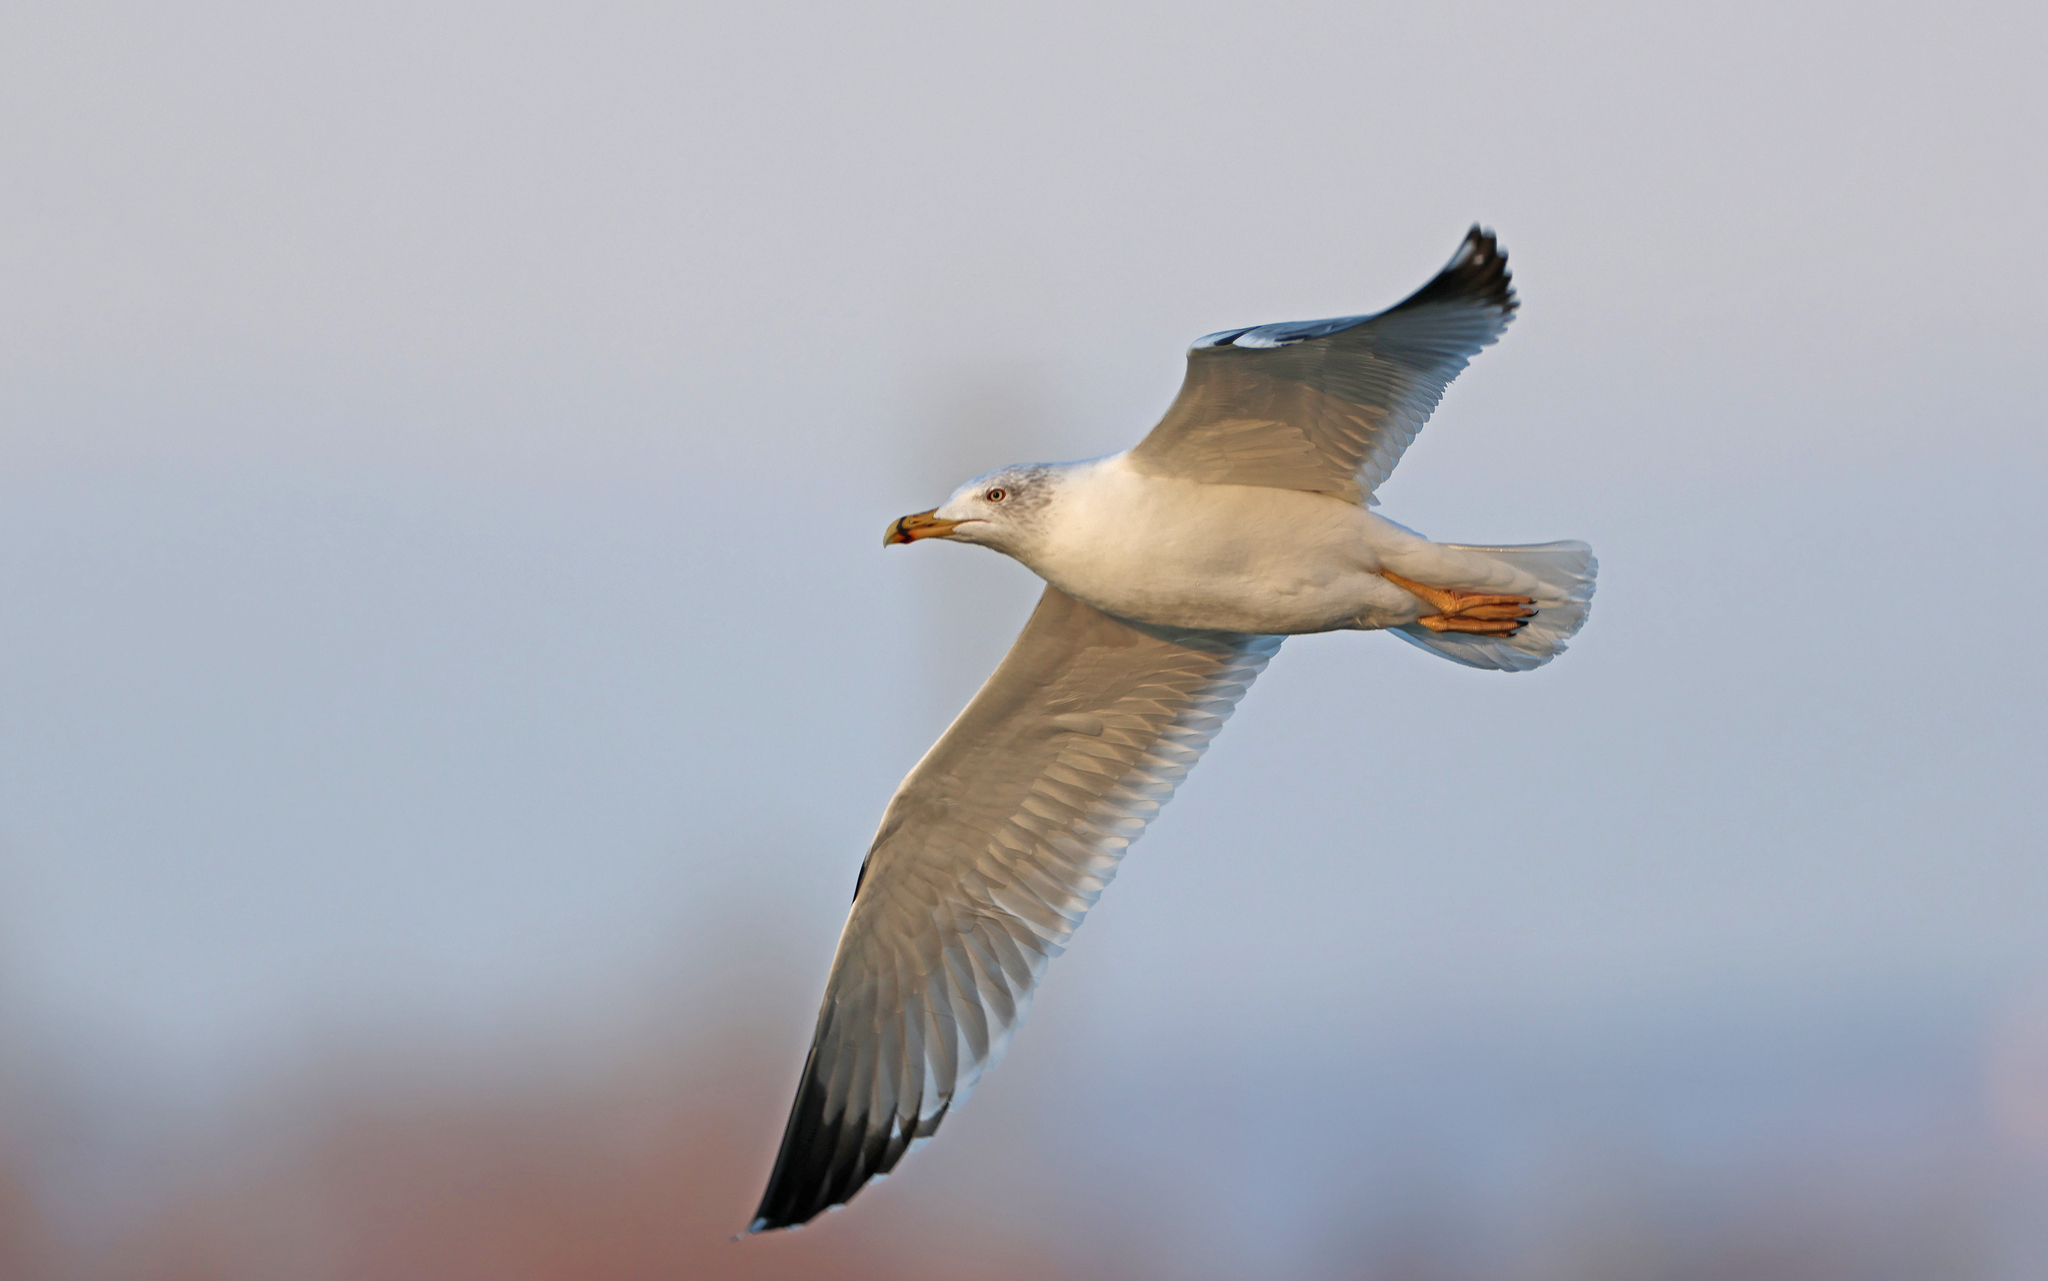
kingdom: Animalia
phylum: Chordata
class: Aves
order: Charadriiformes
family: Laridae
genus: Larus
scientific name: Larus michahellis
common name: Yellow-legged gull
